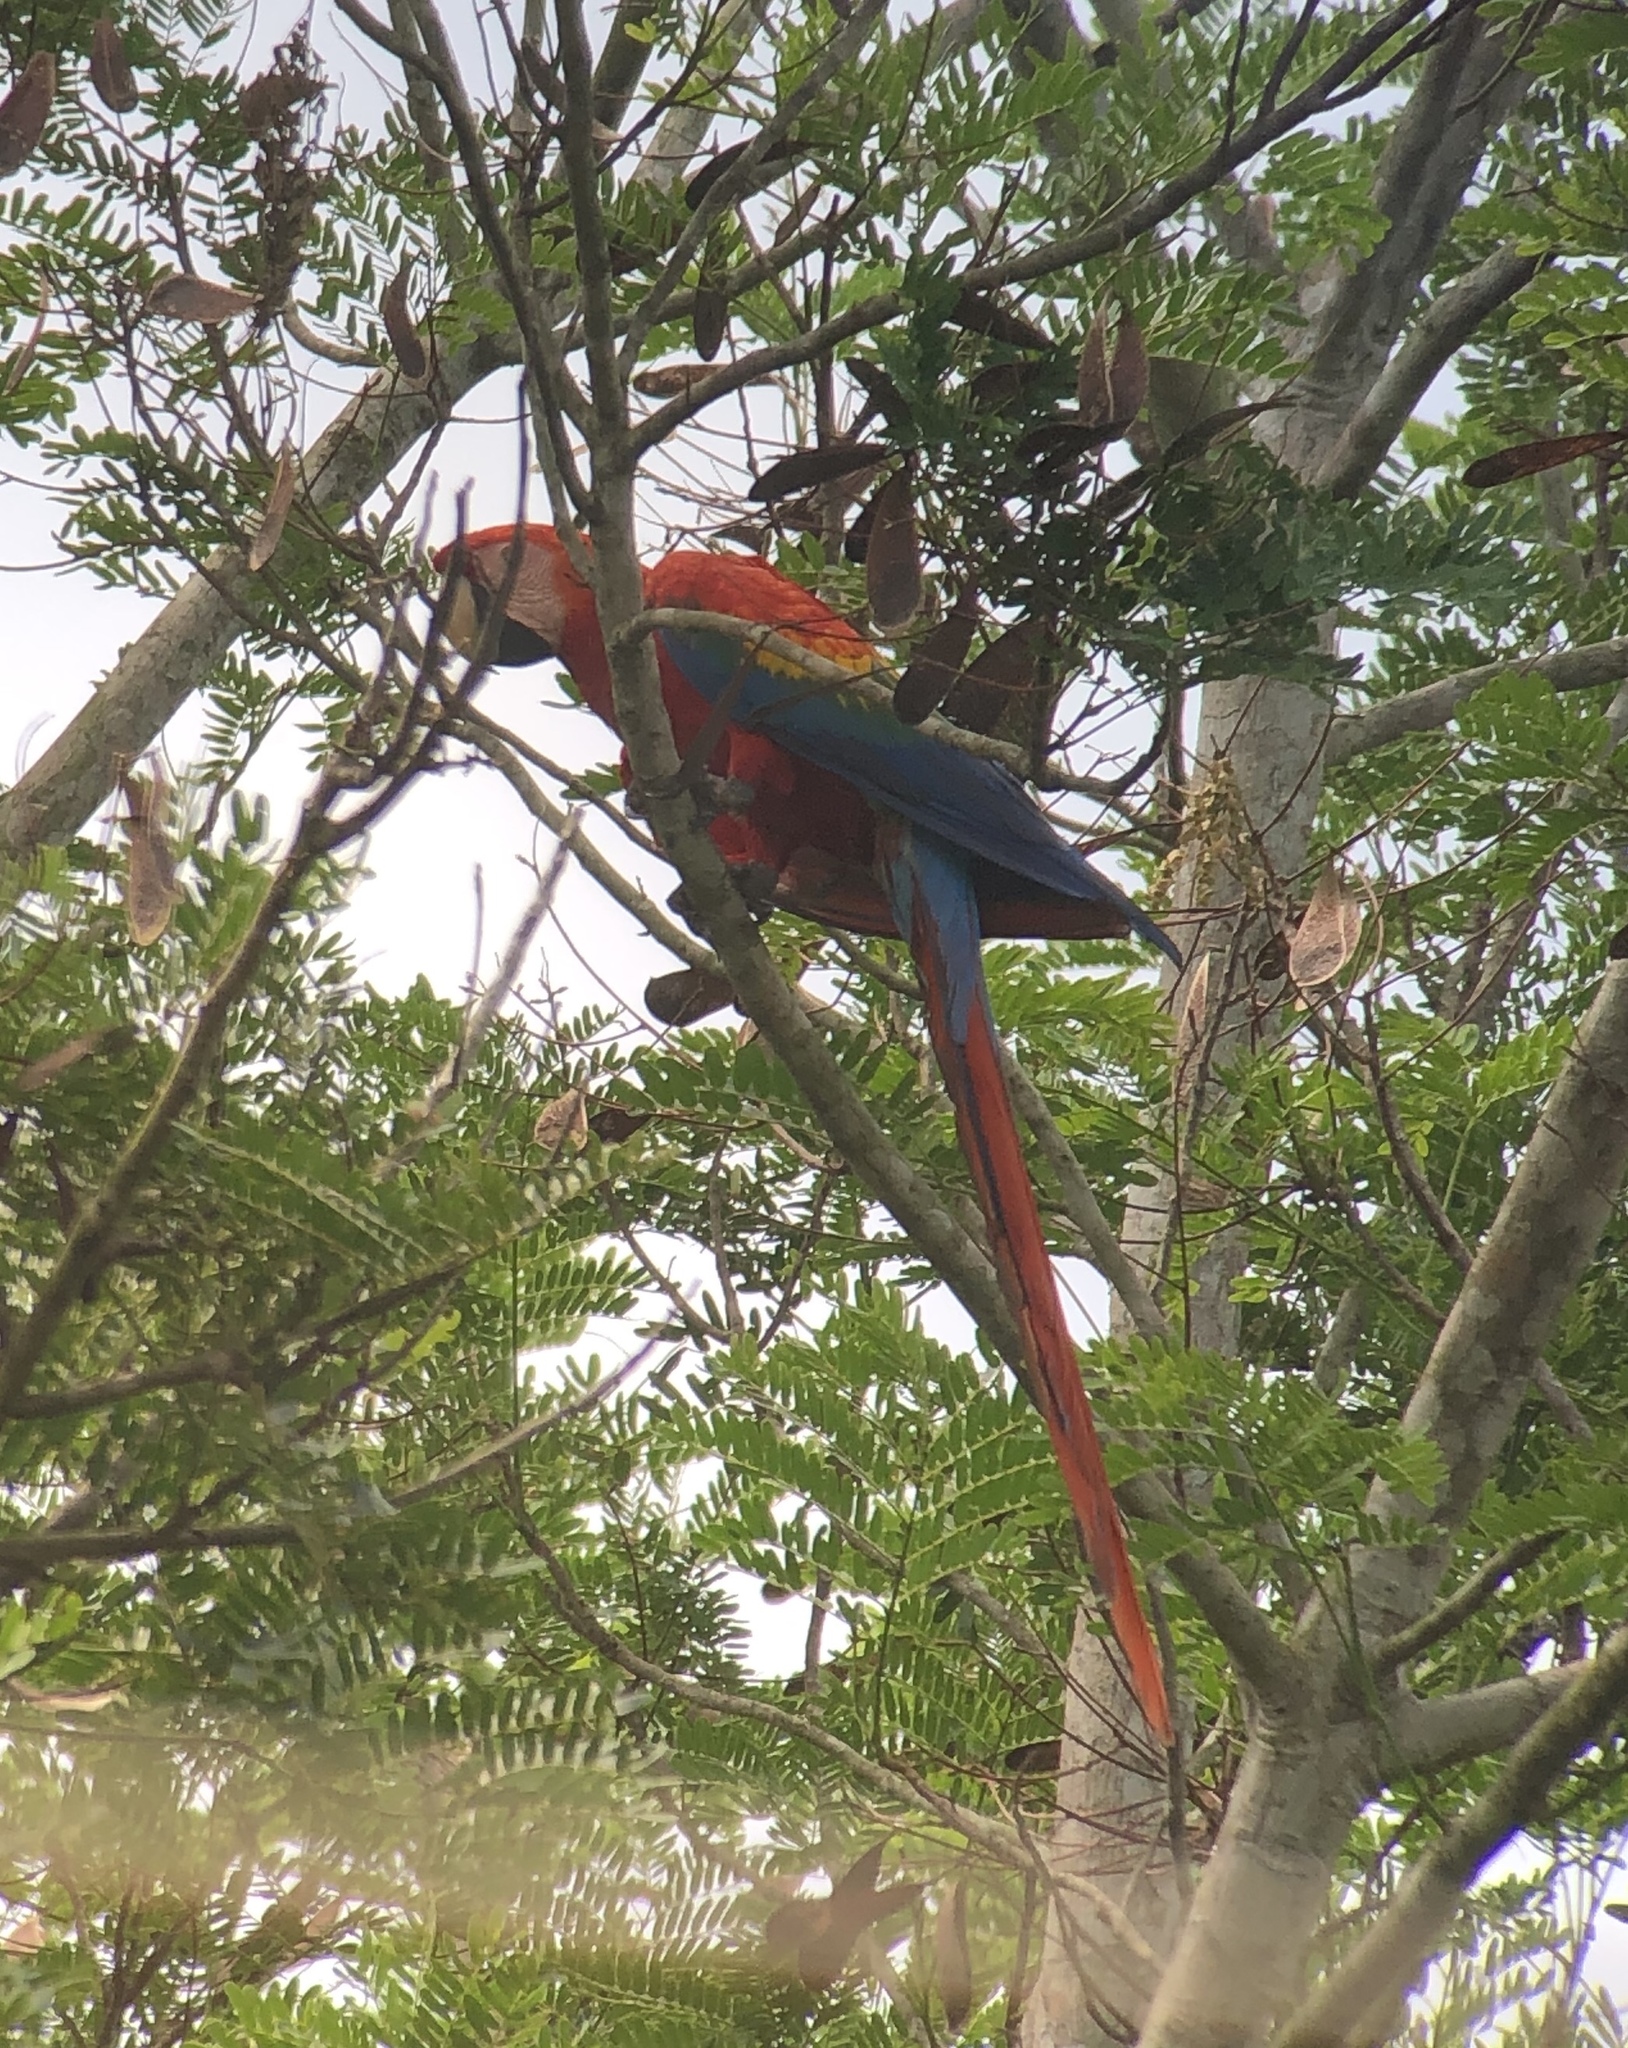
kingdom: Animalia
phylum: Chordata
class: Aves
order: Psittaciformes
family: Psittacidae
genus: Ara
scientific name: Ara macao
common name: Scarlet macaw
